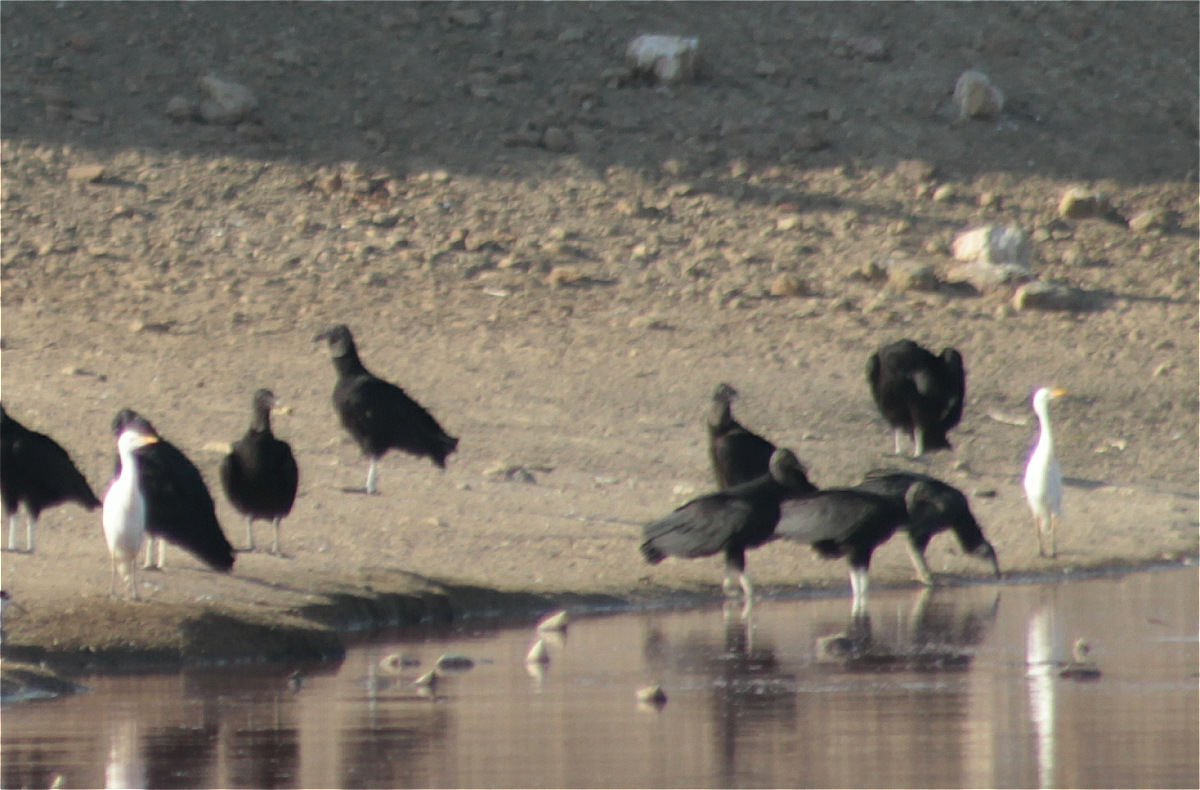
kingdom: Animalia
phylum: Chordata
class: Aves
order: Pelecaniformes
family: Ardeidae
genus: Bubulcus
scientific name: Bubulcus ibis
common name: Cattle egret
